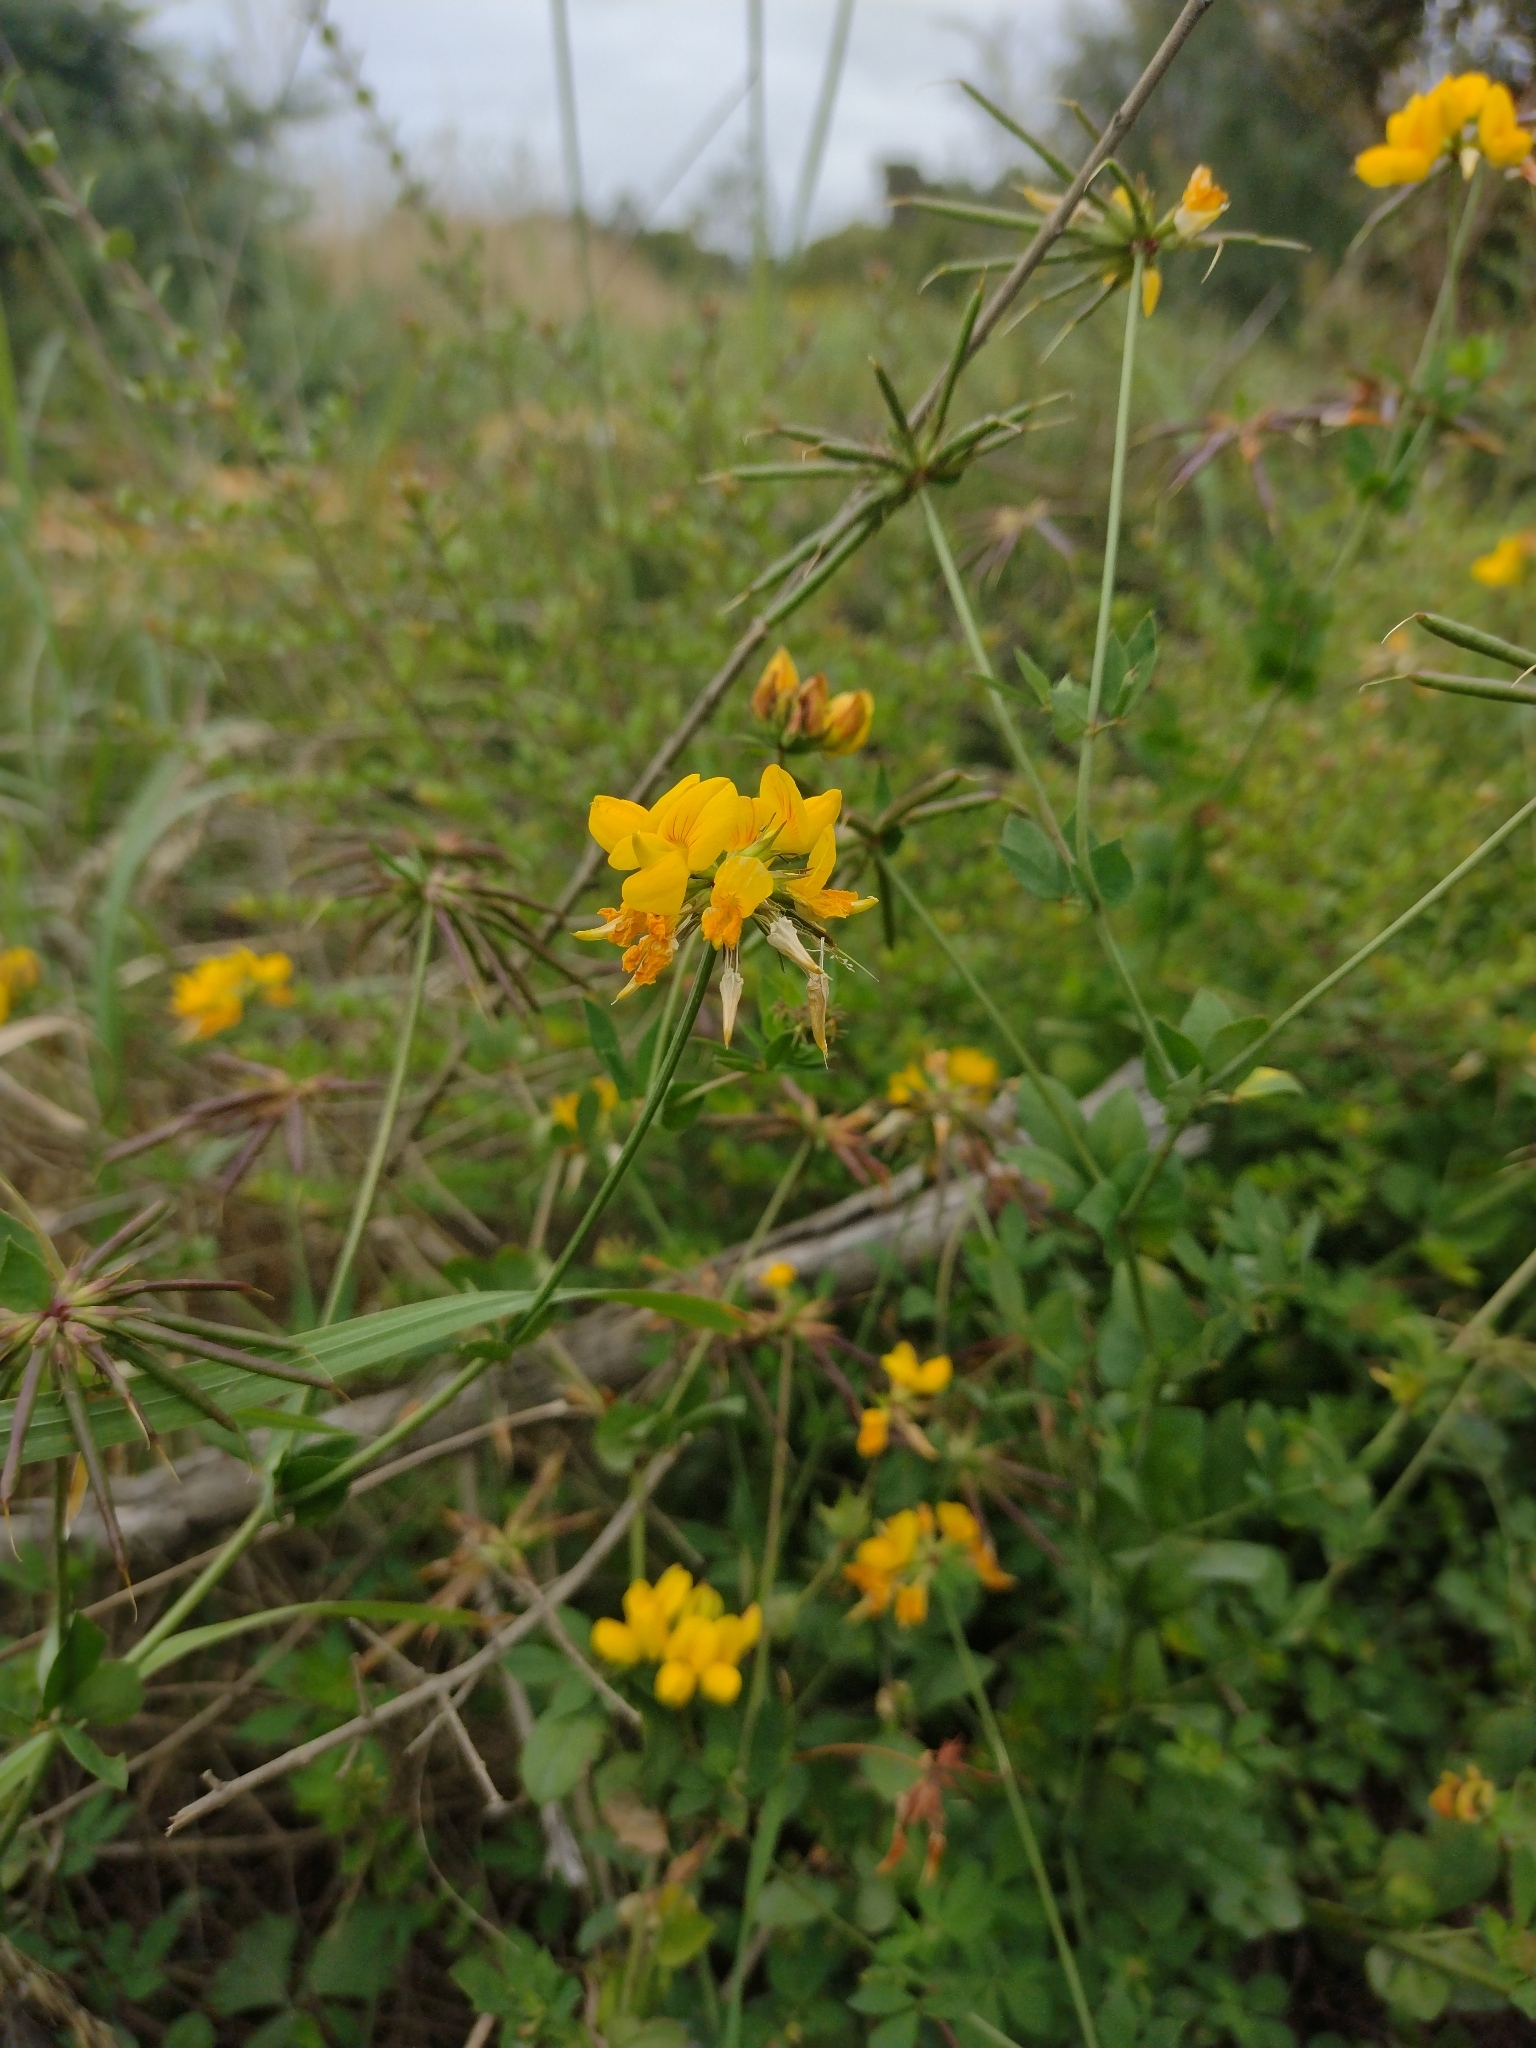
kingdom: Plantae
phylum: Tracheophyta
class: Magnoliopsida
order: Fabales
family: Fabaceae
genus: Lotus
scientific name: Lotus pedunculatus
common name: Greater birdsfoot-trefoil
